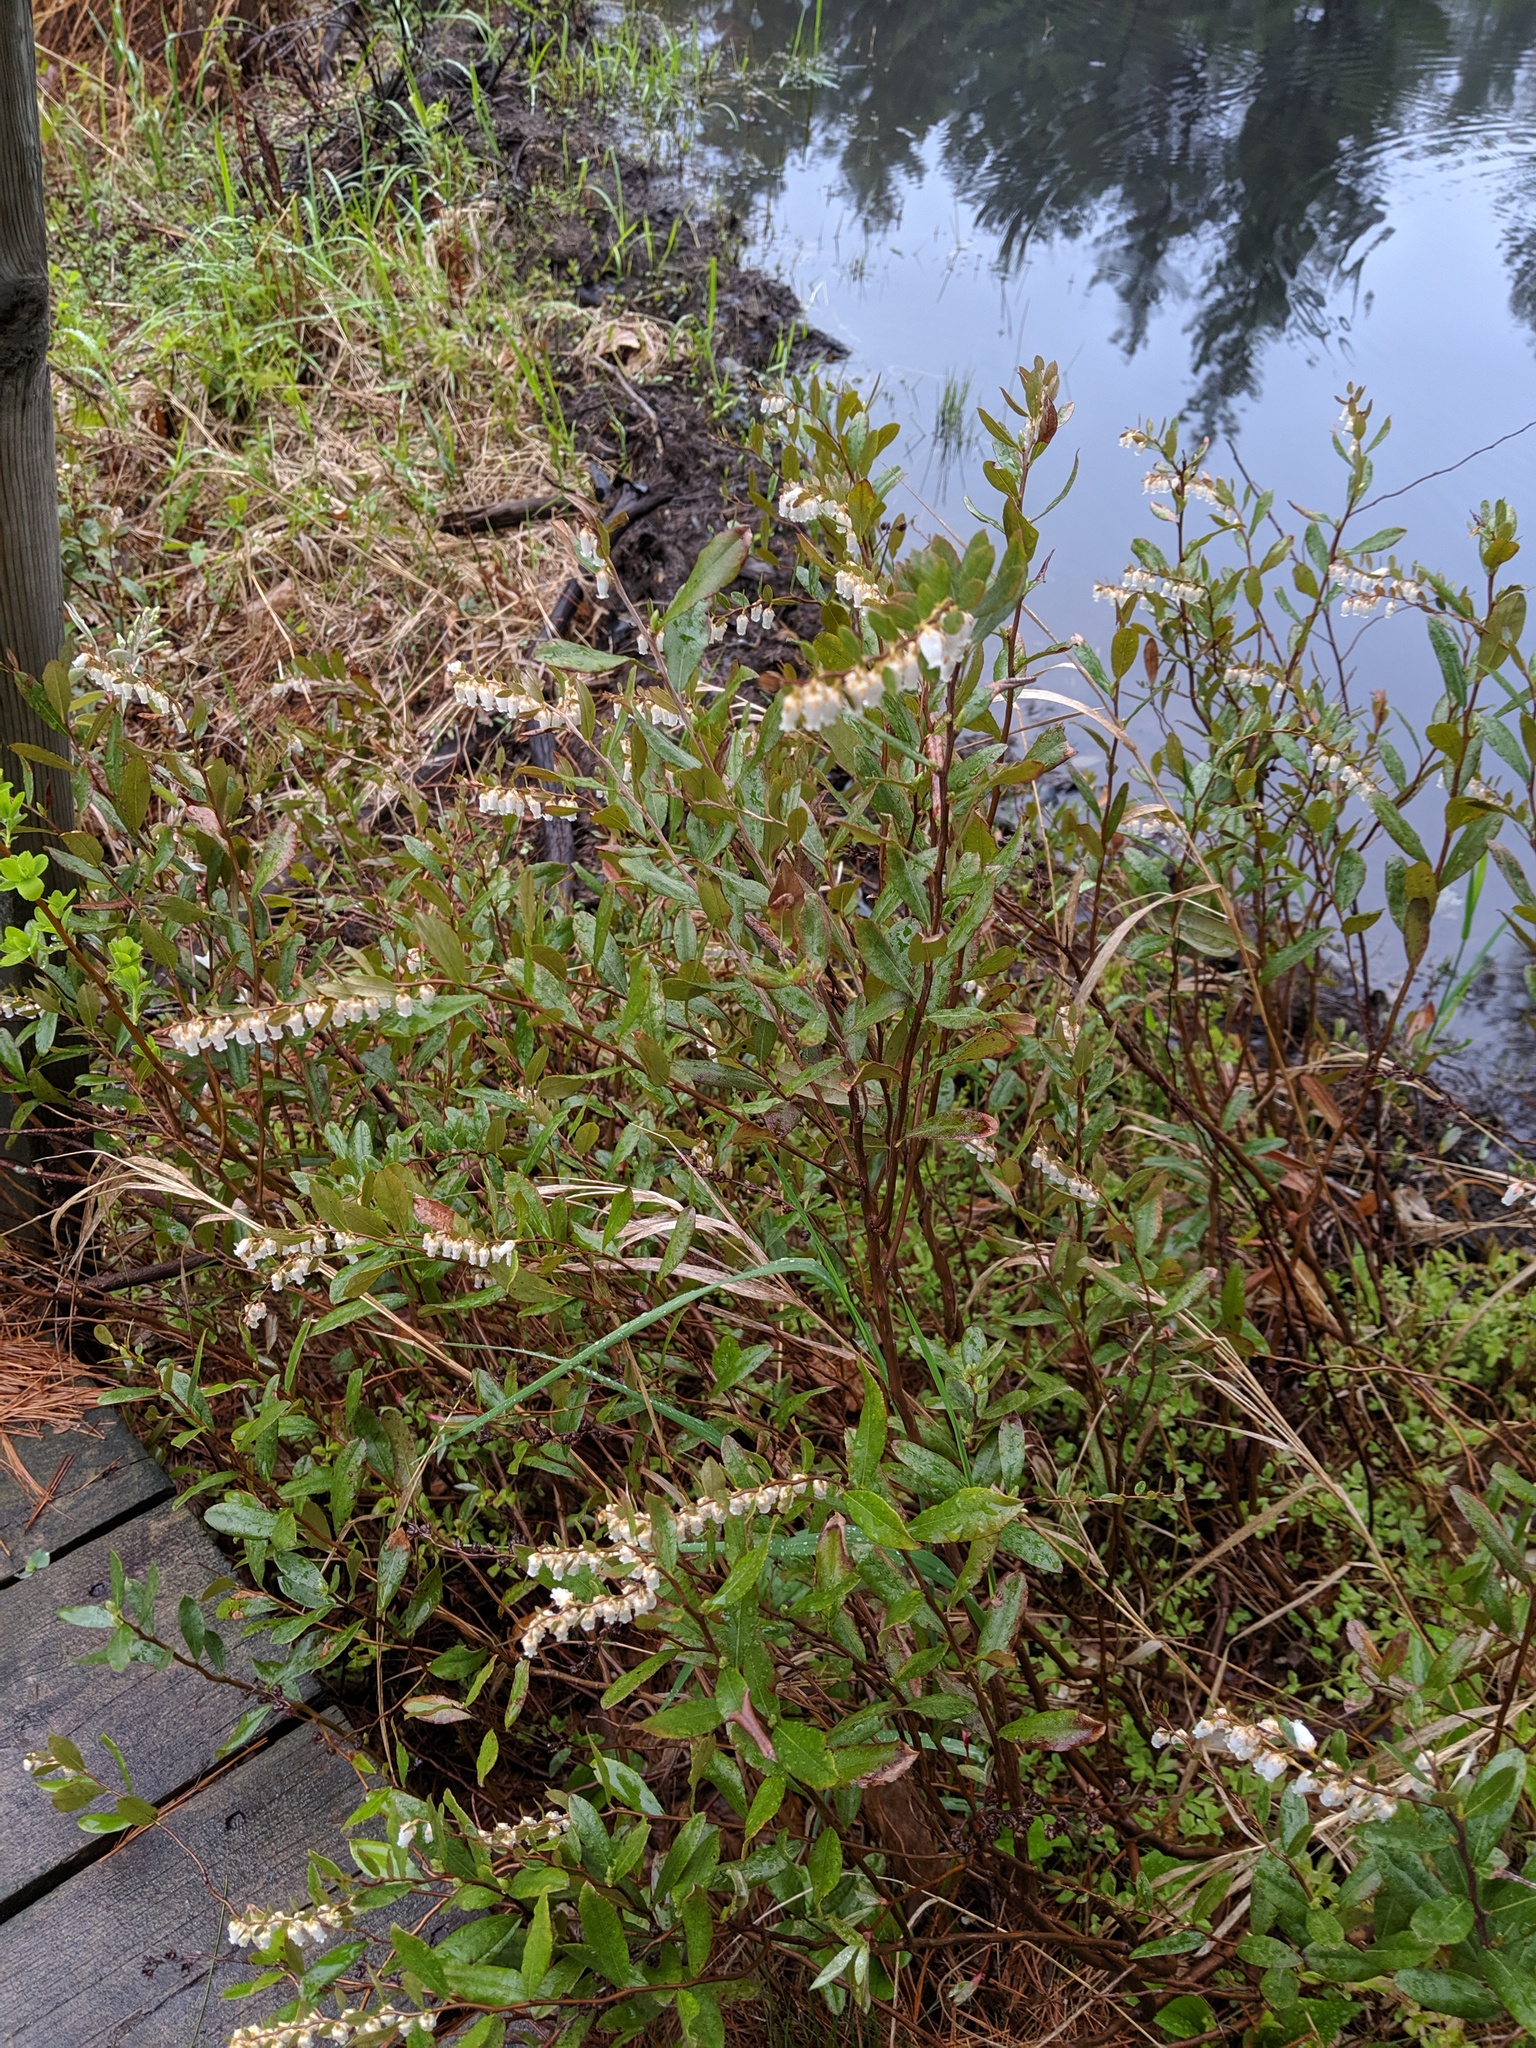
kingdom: Plantae
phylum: Tracheophyta
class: Magnoliopsida
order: Ericales
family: Ericaceae
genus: Chamaedaphne
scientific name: Chamaedaphne calyculata
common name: Leatherleaf
